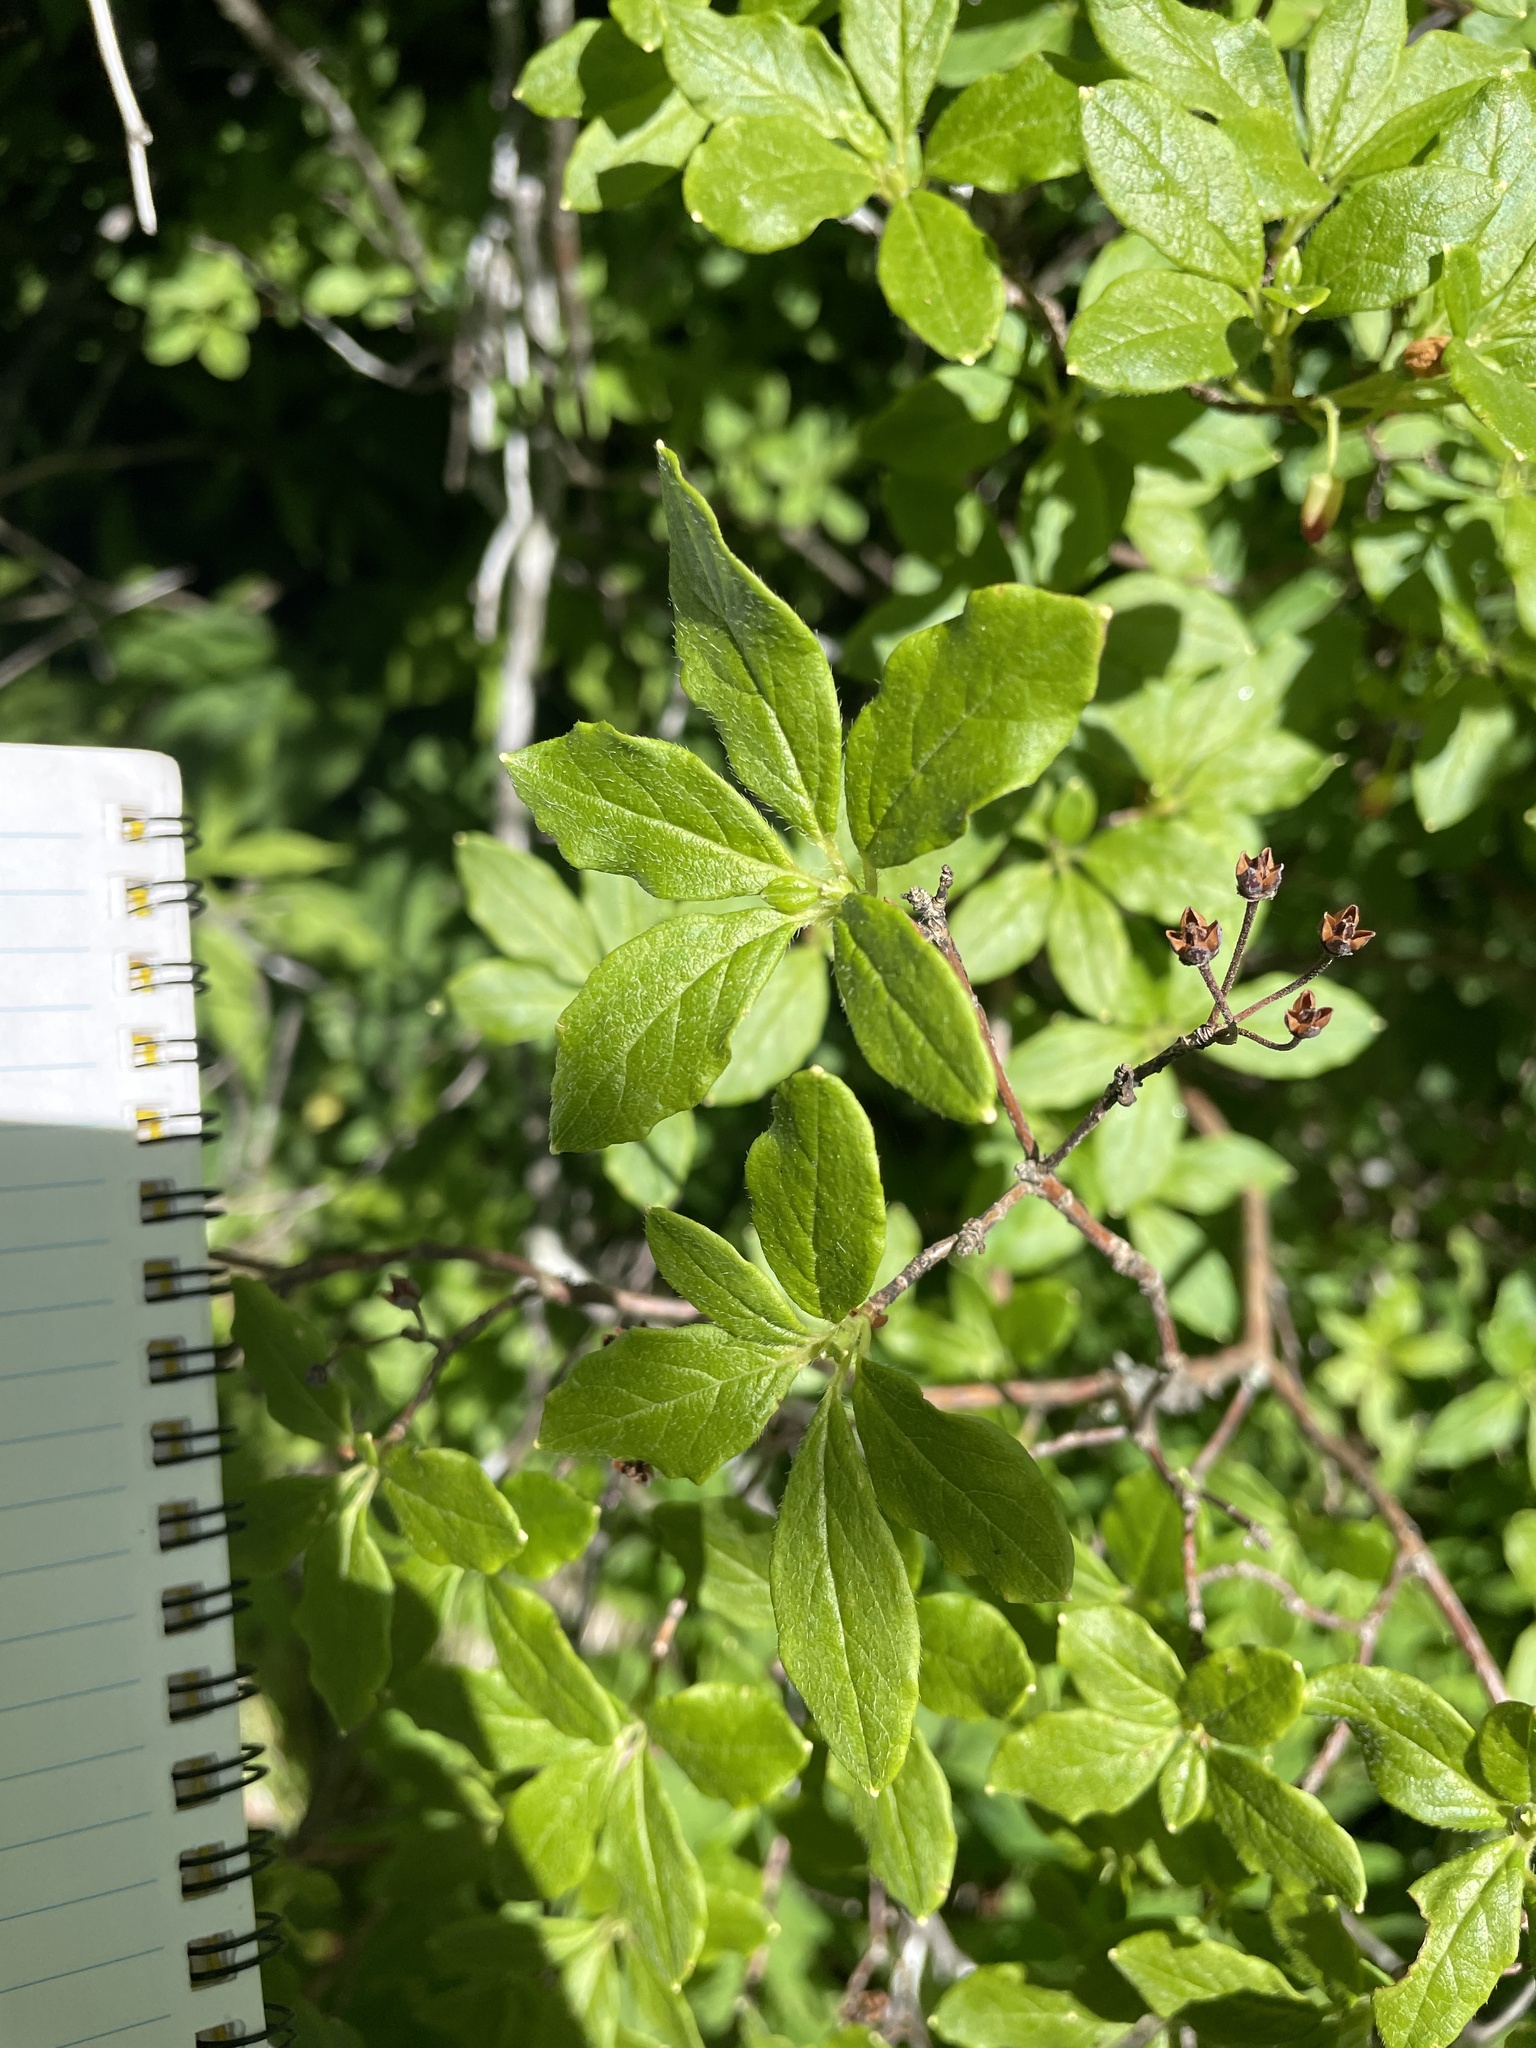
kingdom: Plantae
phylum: Tracheophyta
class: Magnoliopsida
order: Ericales
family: Ericaceae
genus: Rhododendron
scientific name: Rhododendron pilosum
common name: Hairy minniebush
